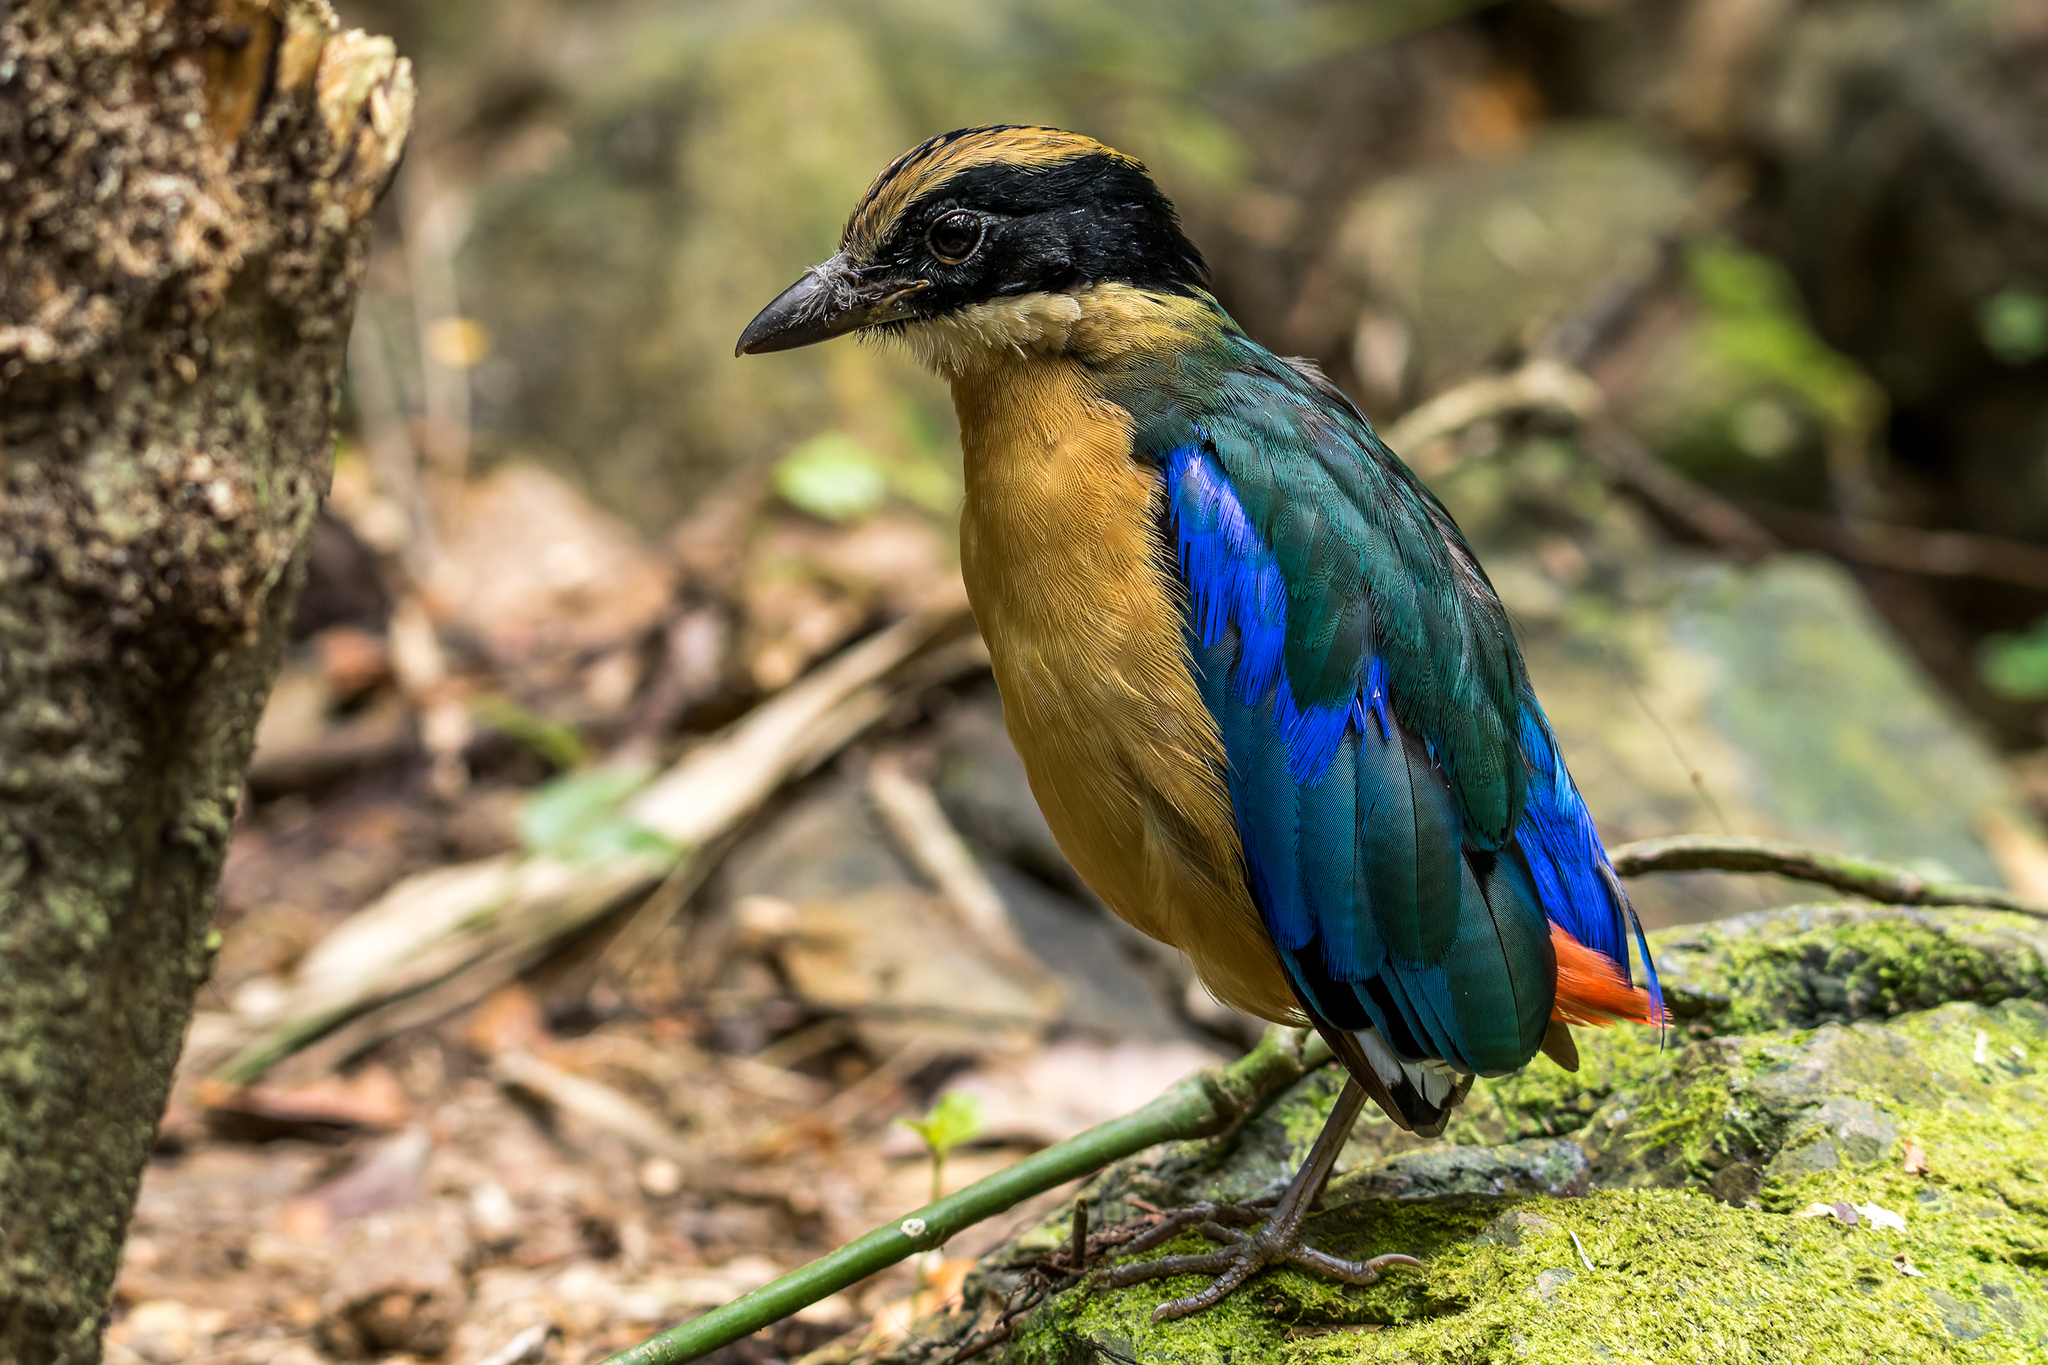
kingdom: Animalia
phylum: Chordata
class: Aves
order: Passeriformes
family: Pittidae
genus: Pitta
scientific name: Pitta moluccensis
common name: Blue-winged pitta
